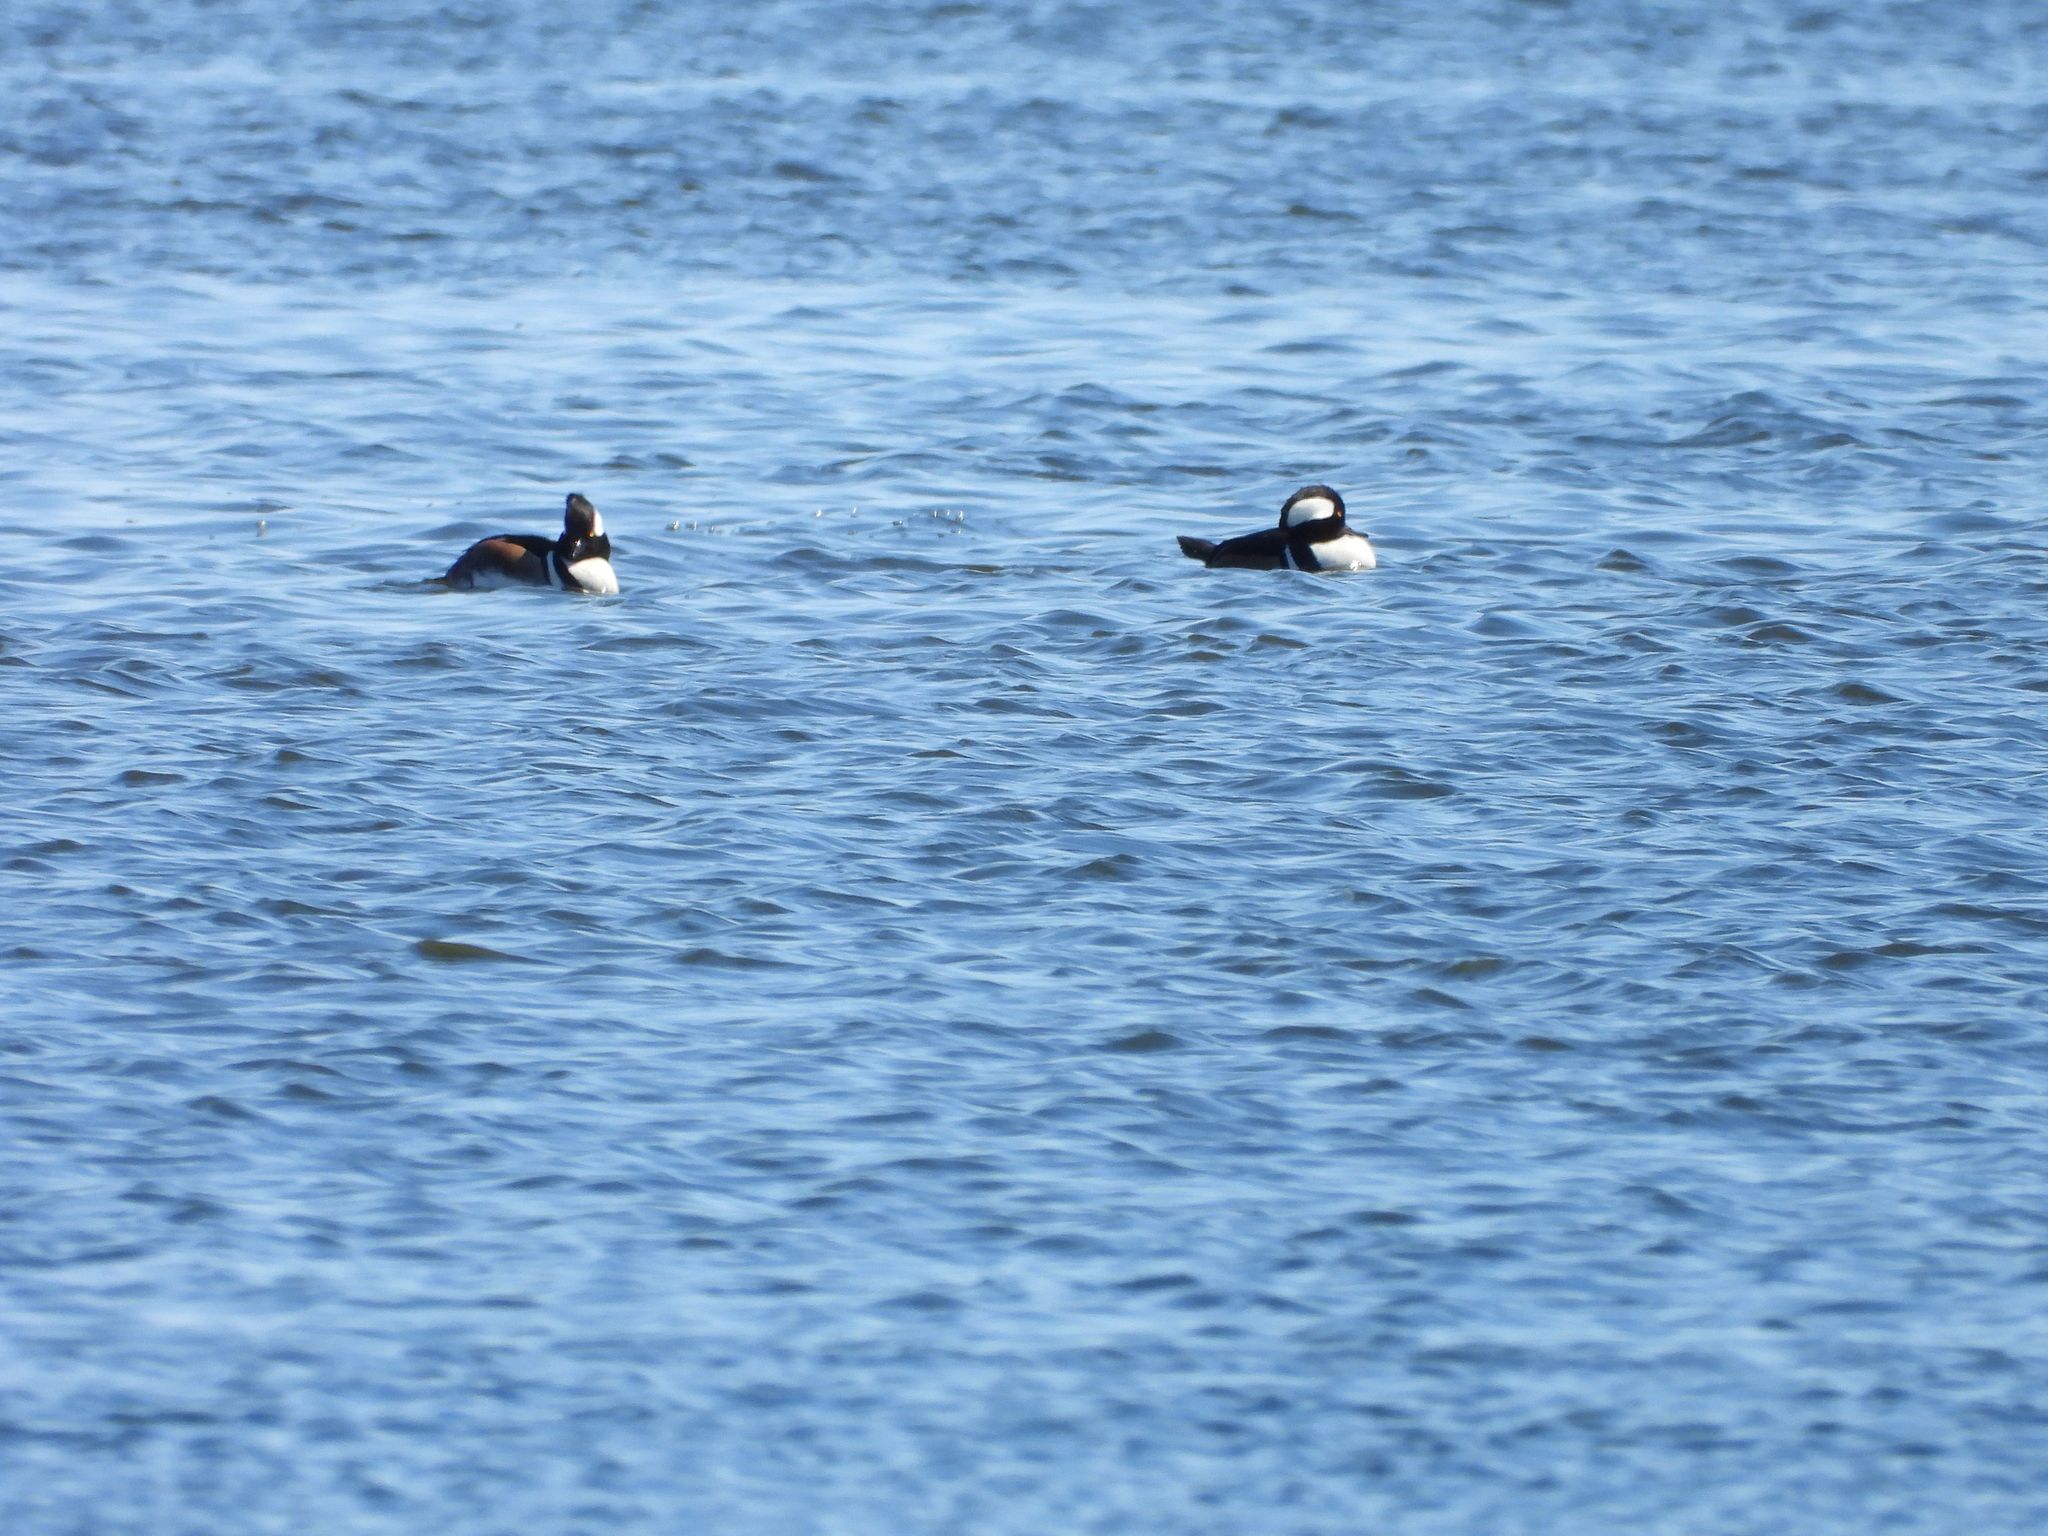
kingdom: Animalia
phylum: Chordata
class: Aves
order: Anseriformes
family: Anatidae
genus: Lophodytes
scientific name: Lophodytes cucullatus
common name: Hooded merganser
